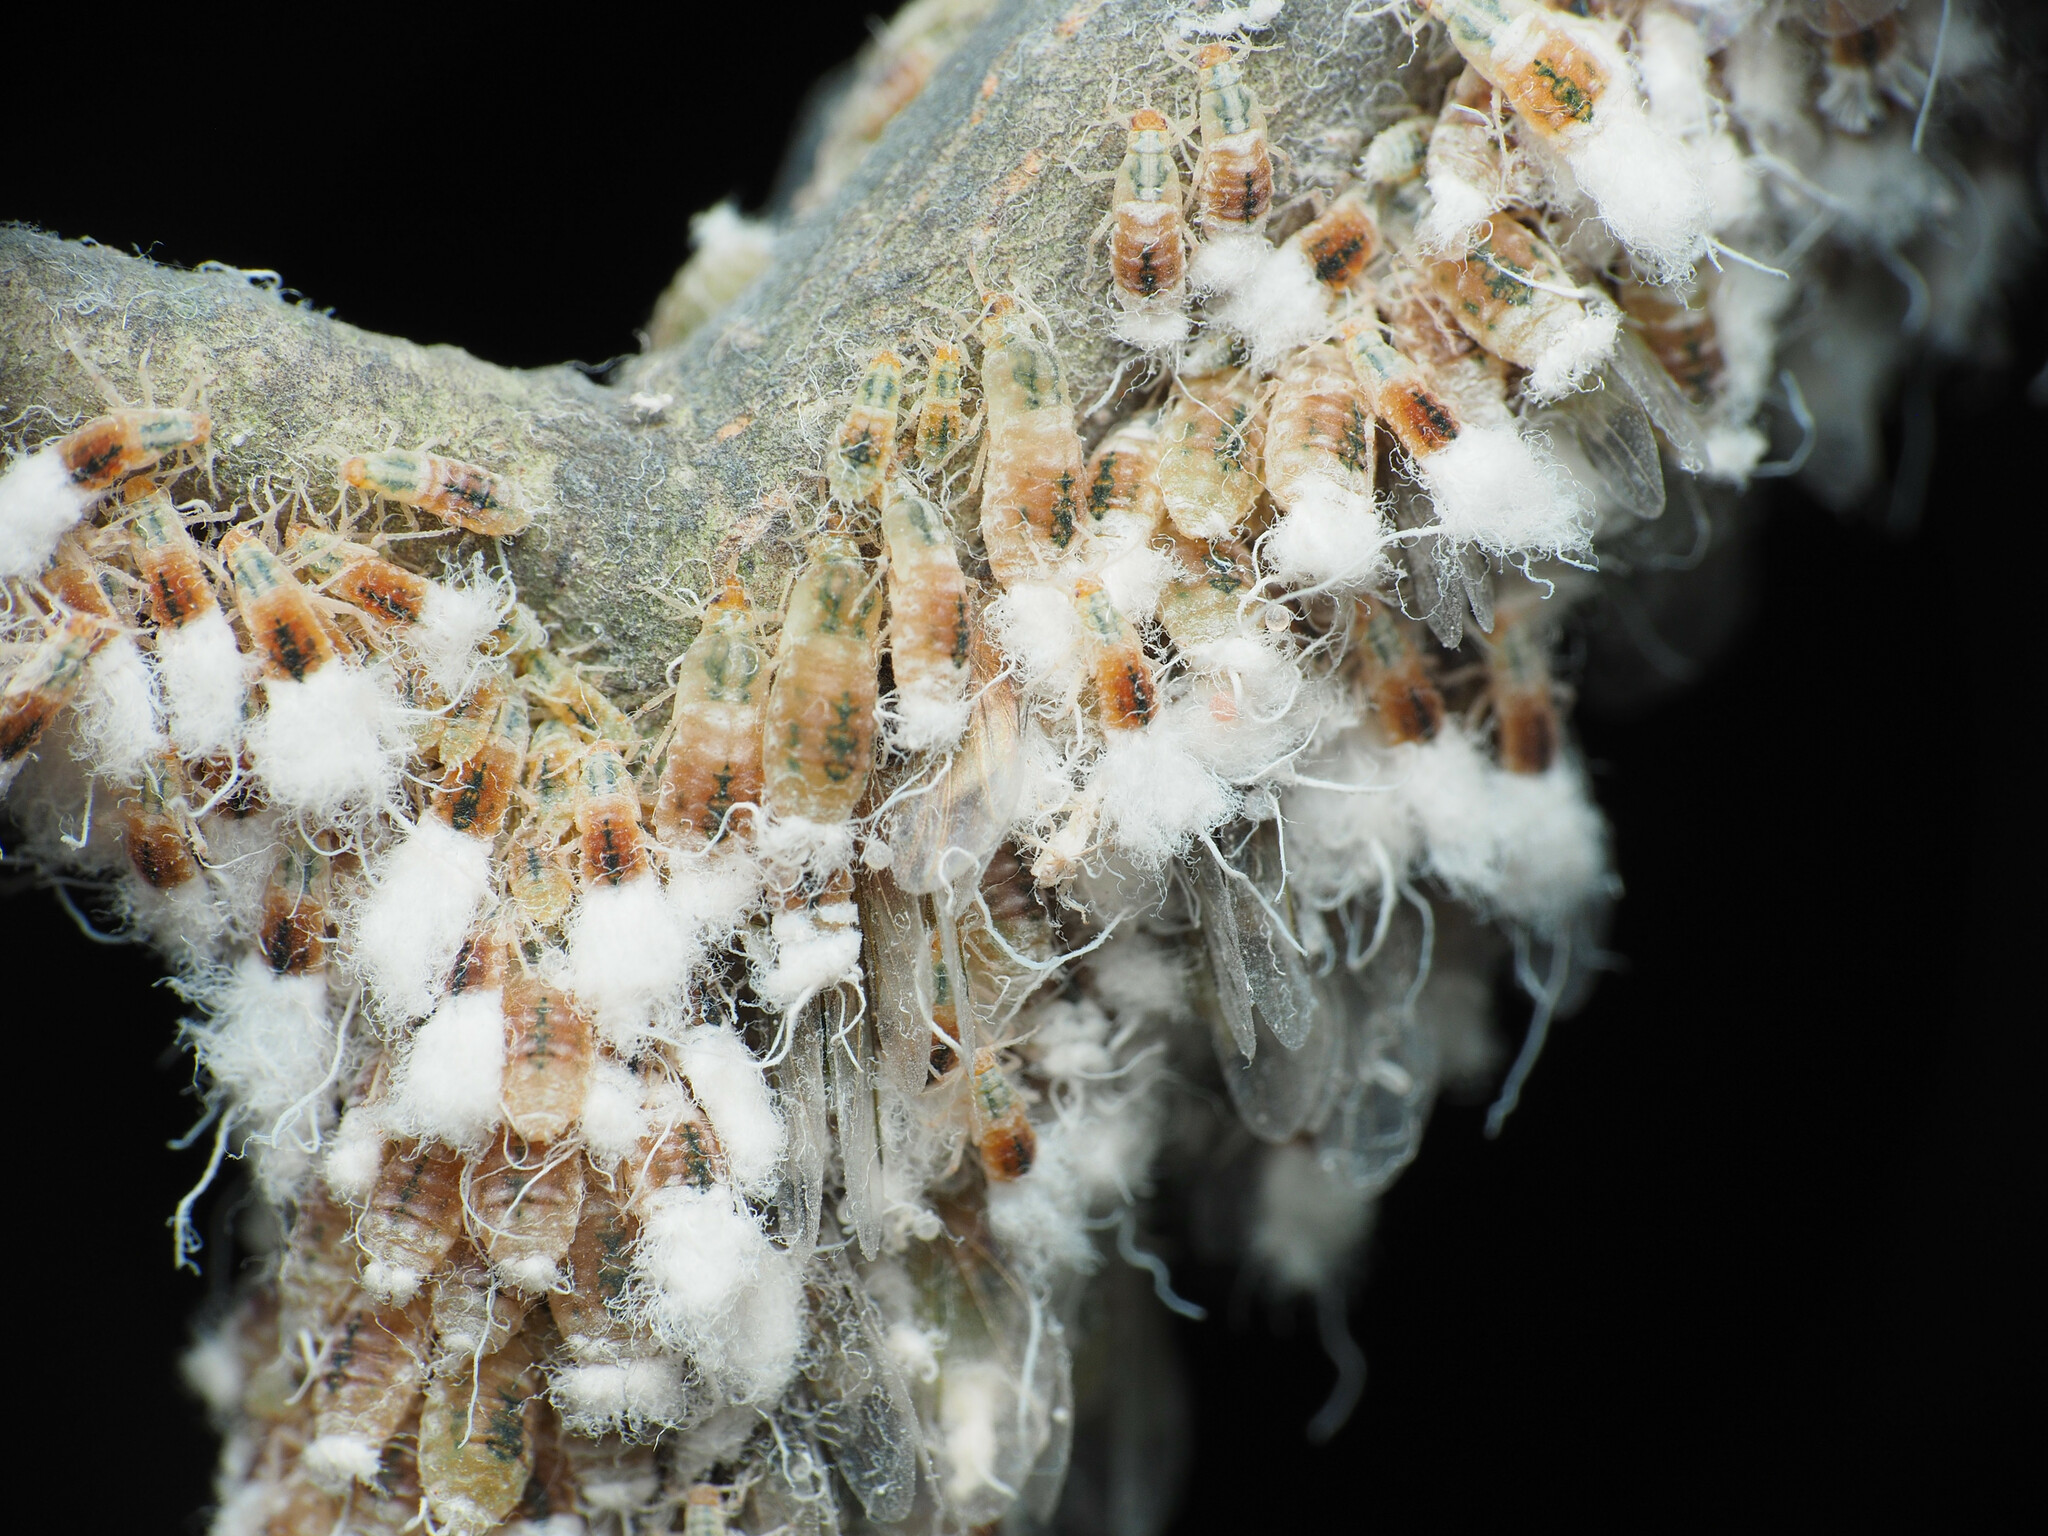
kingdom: Animalia
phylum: Arthropoda
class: Insecta
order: Hemiptera
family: Aphididae
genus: Grylloprociphilus
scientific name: Grylloprociphilus imbricator
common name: Beech blight aphid
